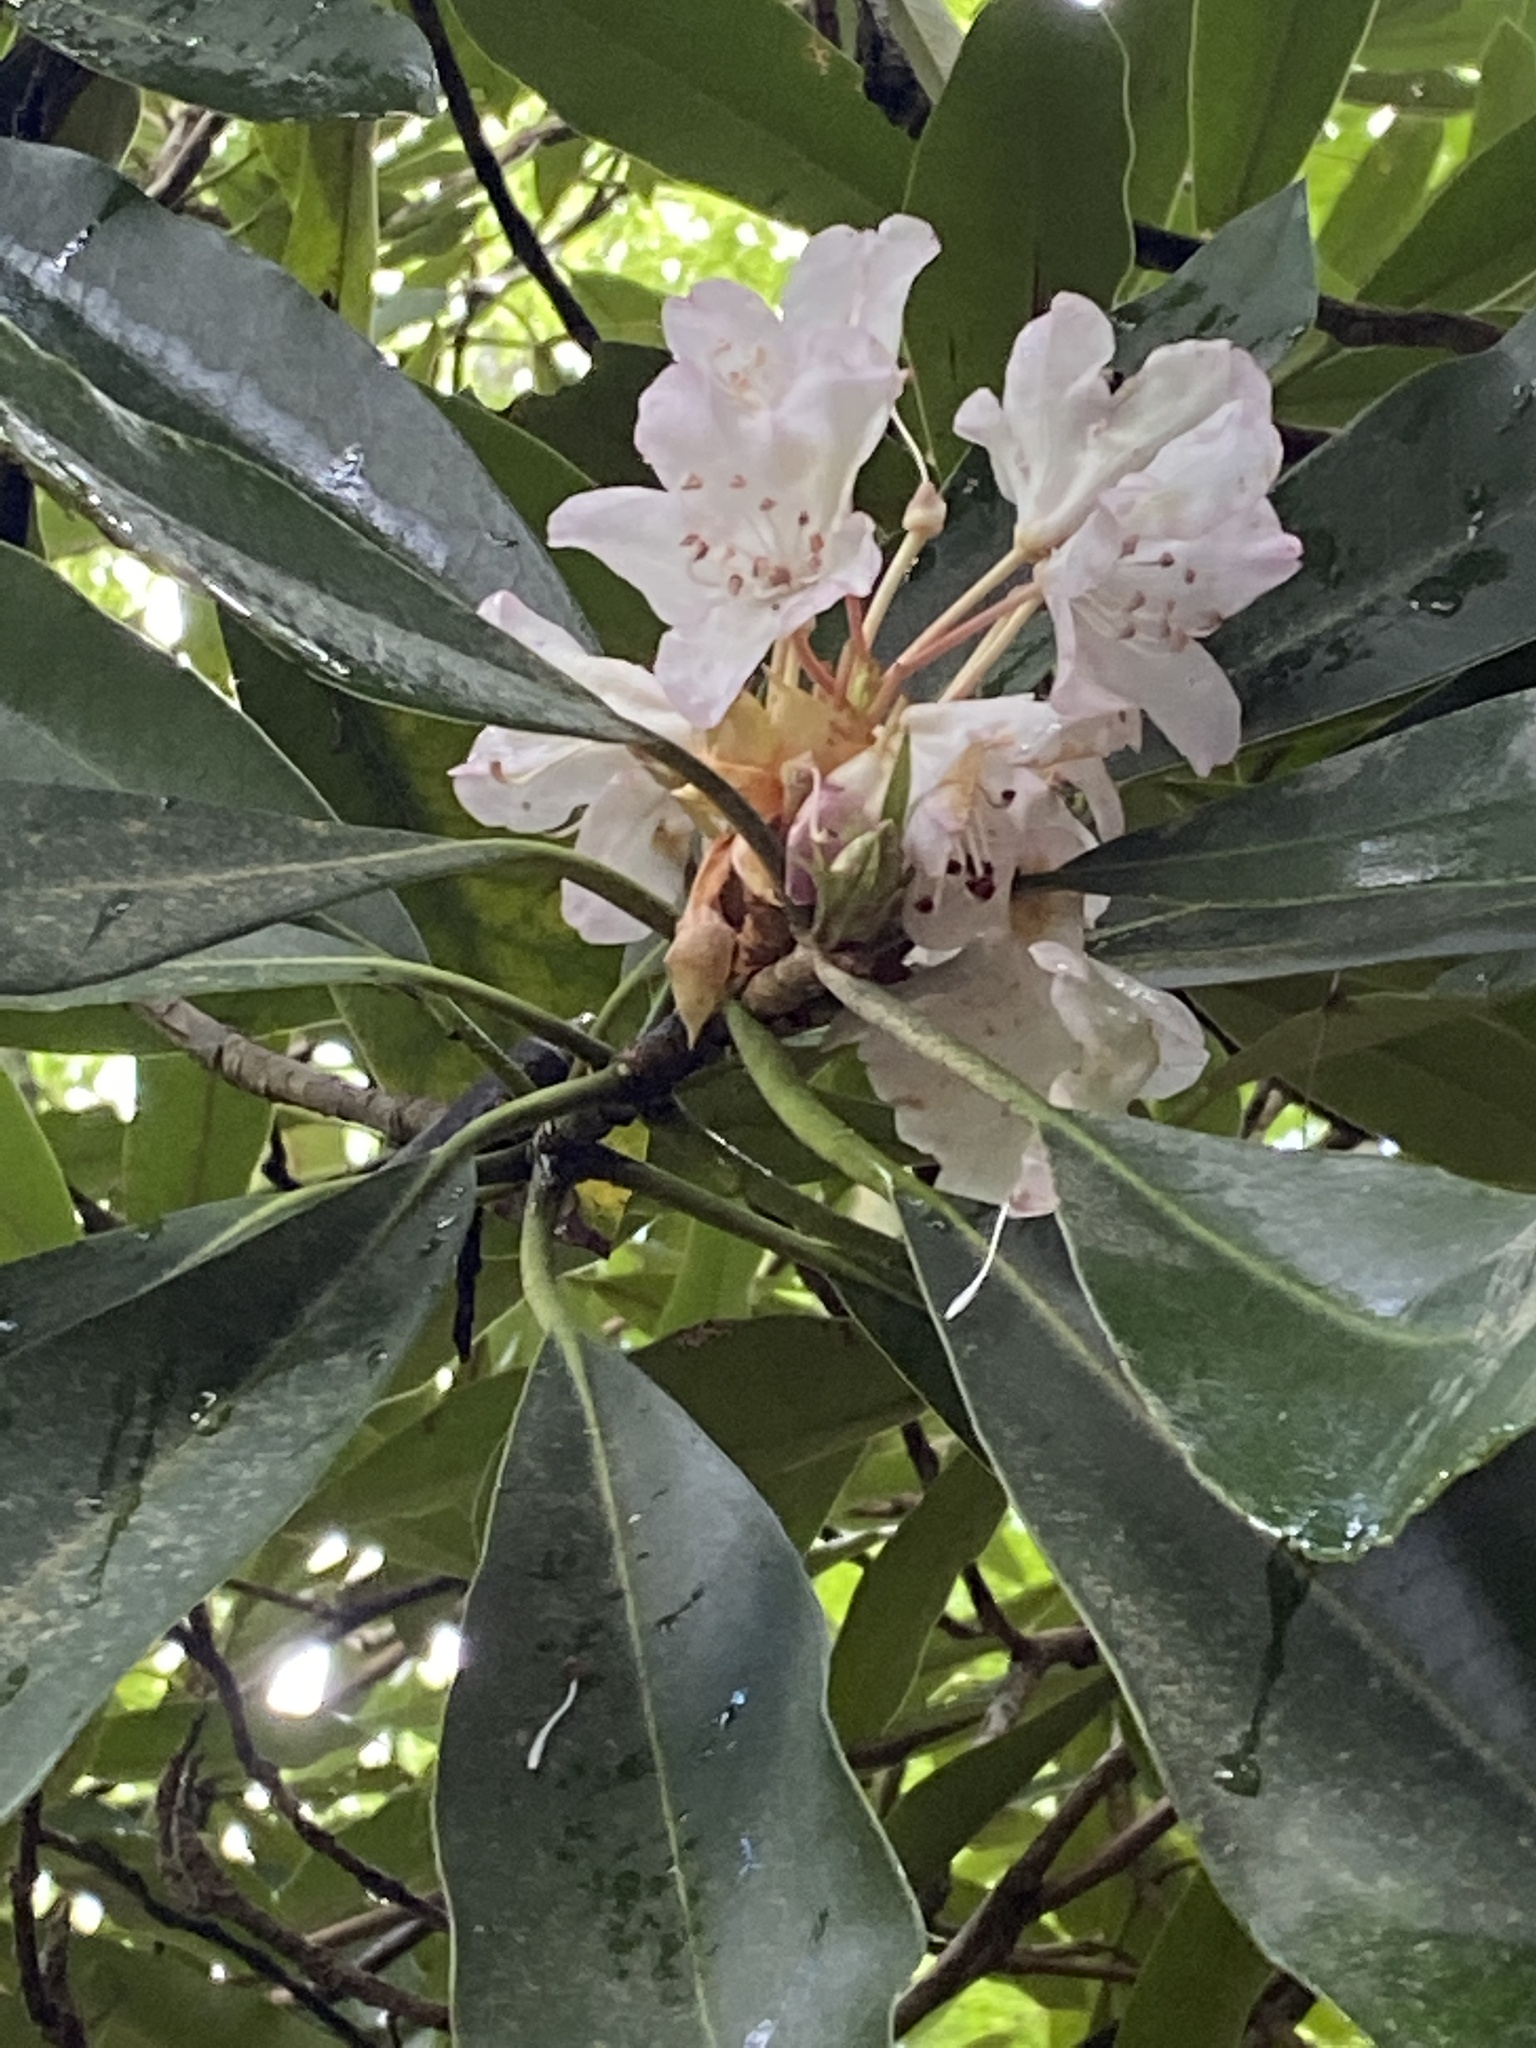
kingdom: Plantae
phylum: Tracheophyta
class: Magnoliopsida
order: Ericales
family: Ericaceae
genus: Rhododendron
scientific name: Rhododendron maximum
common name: Great rhododendron
